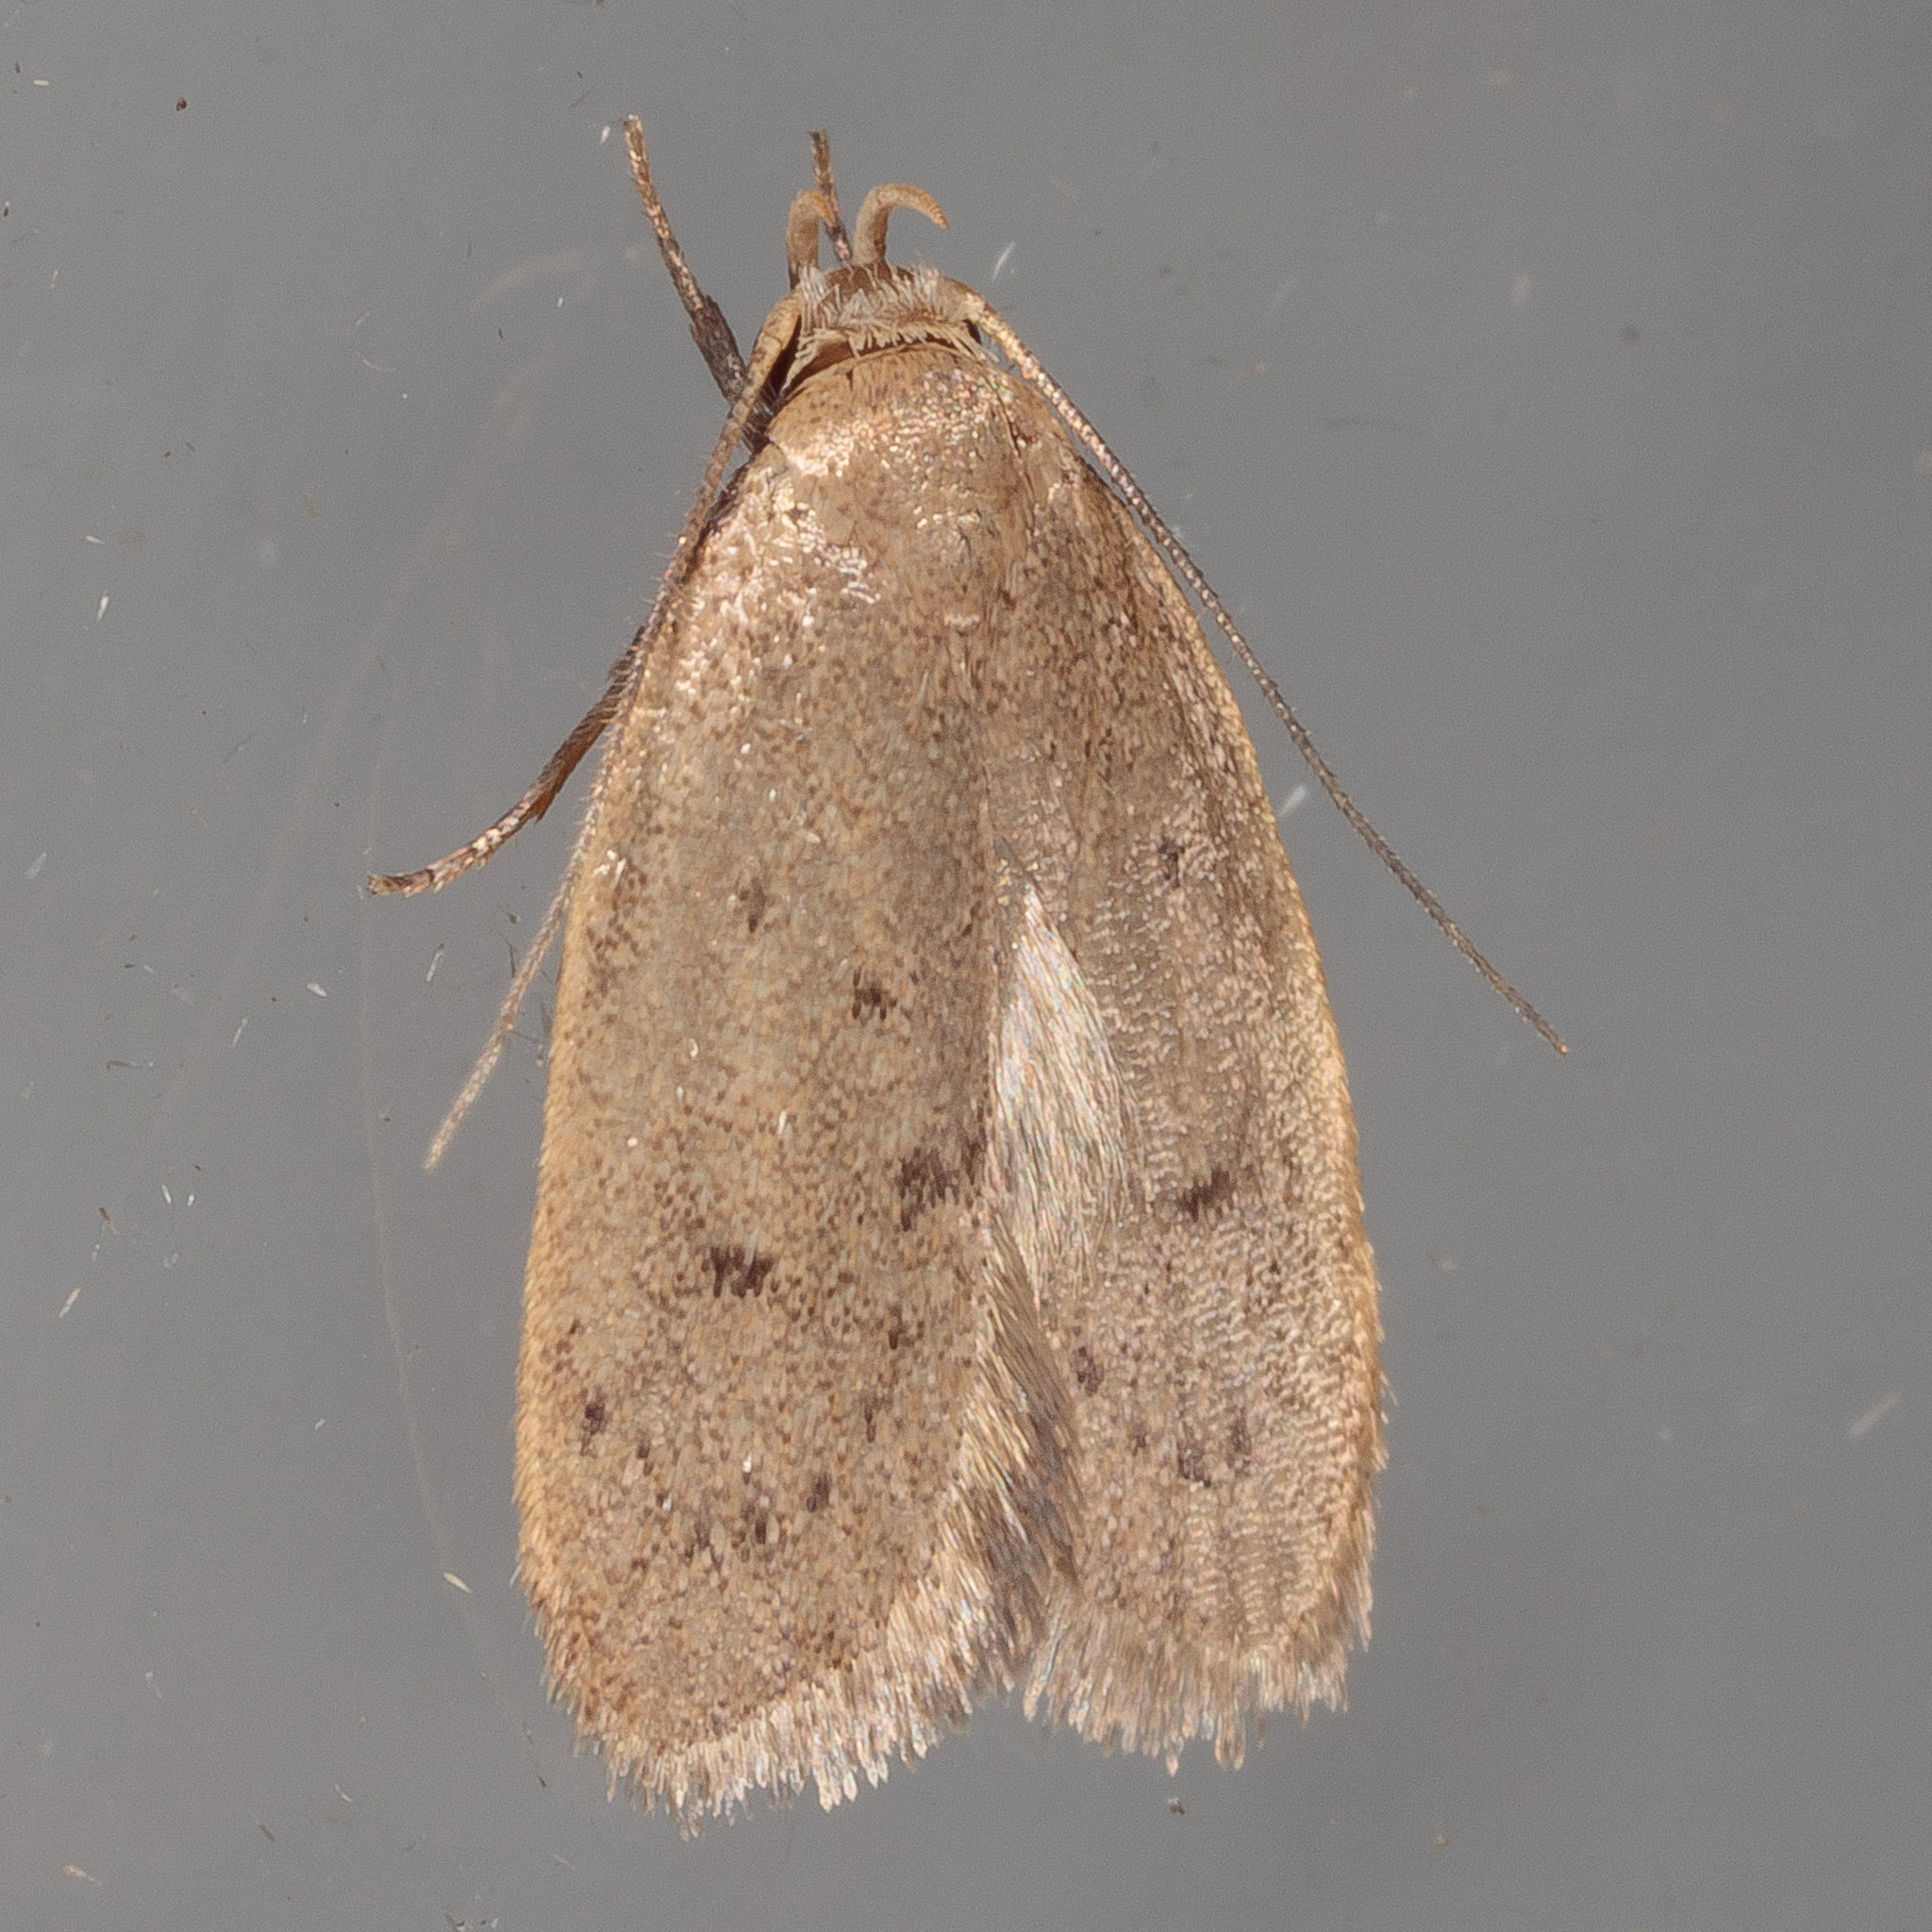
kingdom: Animalia
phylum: Arthropoda
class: Insecta
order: Lepidoptera
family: Oecophoridae
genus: Inga
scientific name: Inga obscuromaculella
